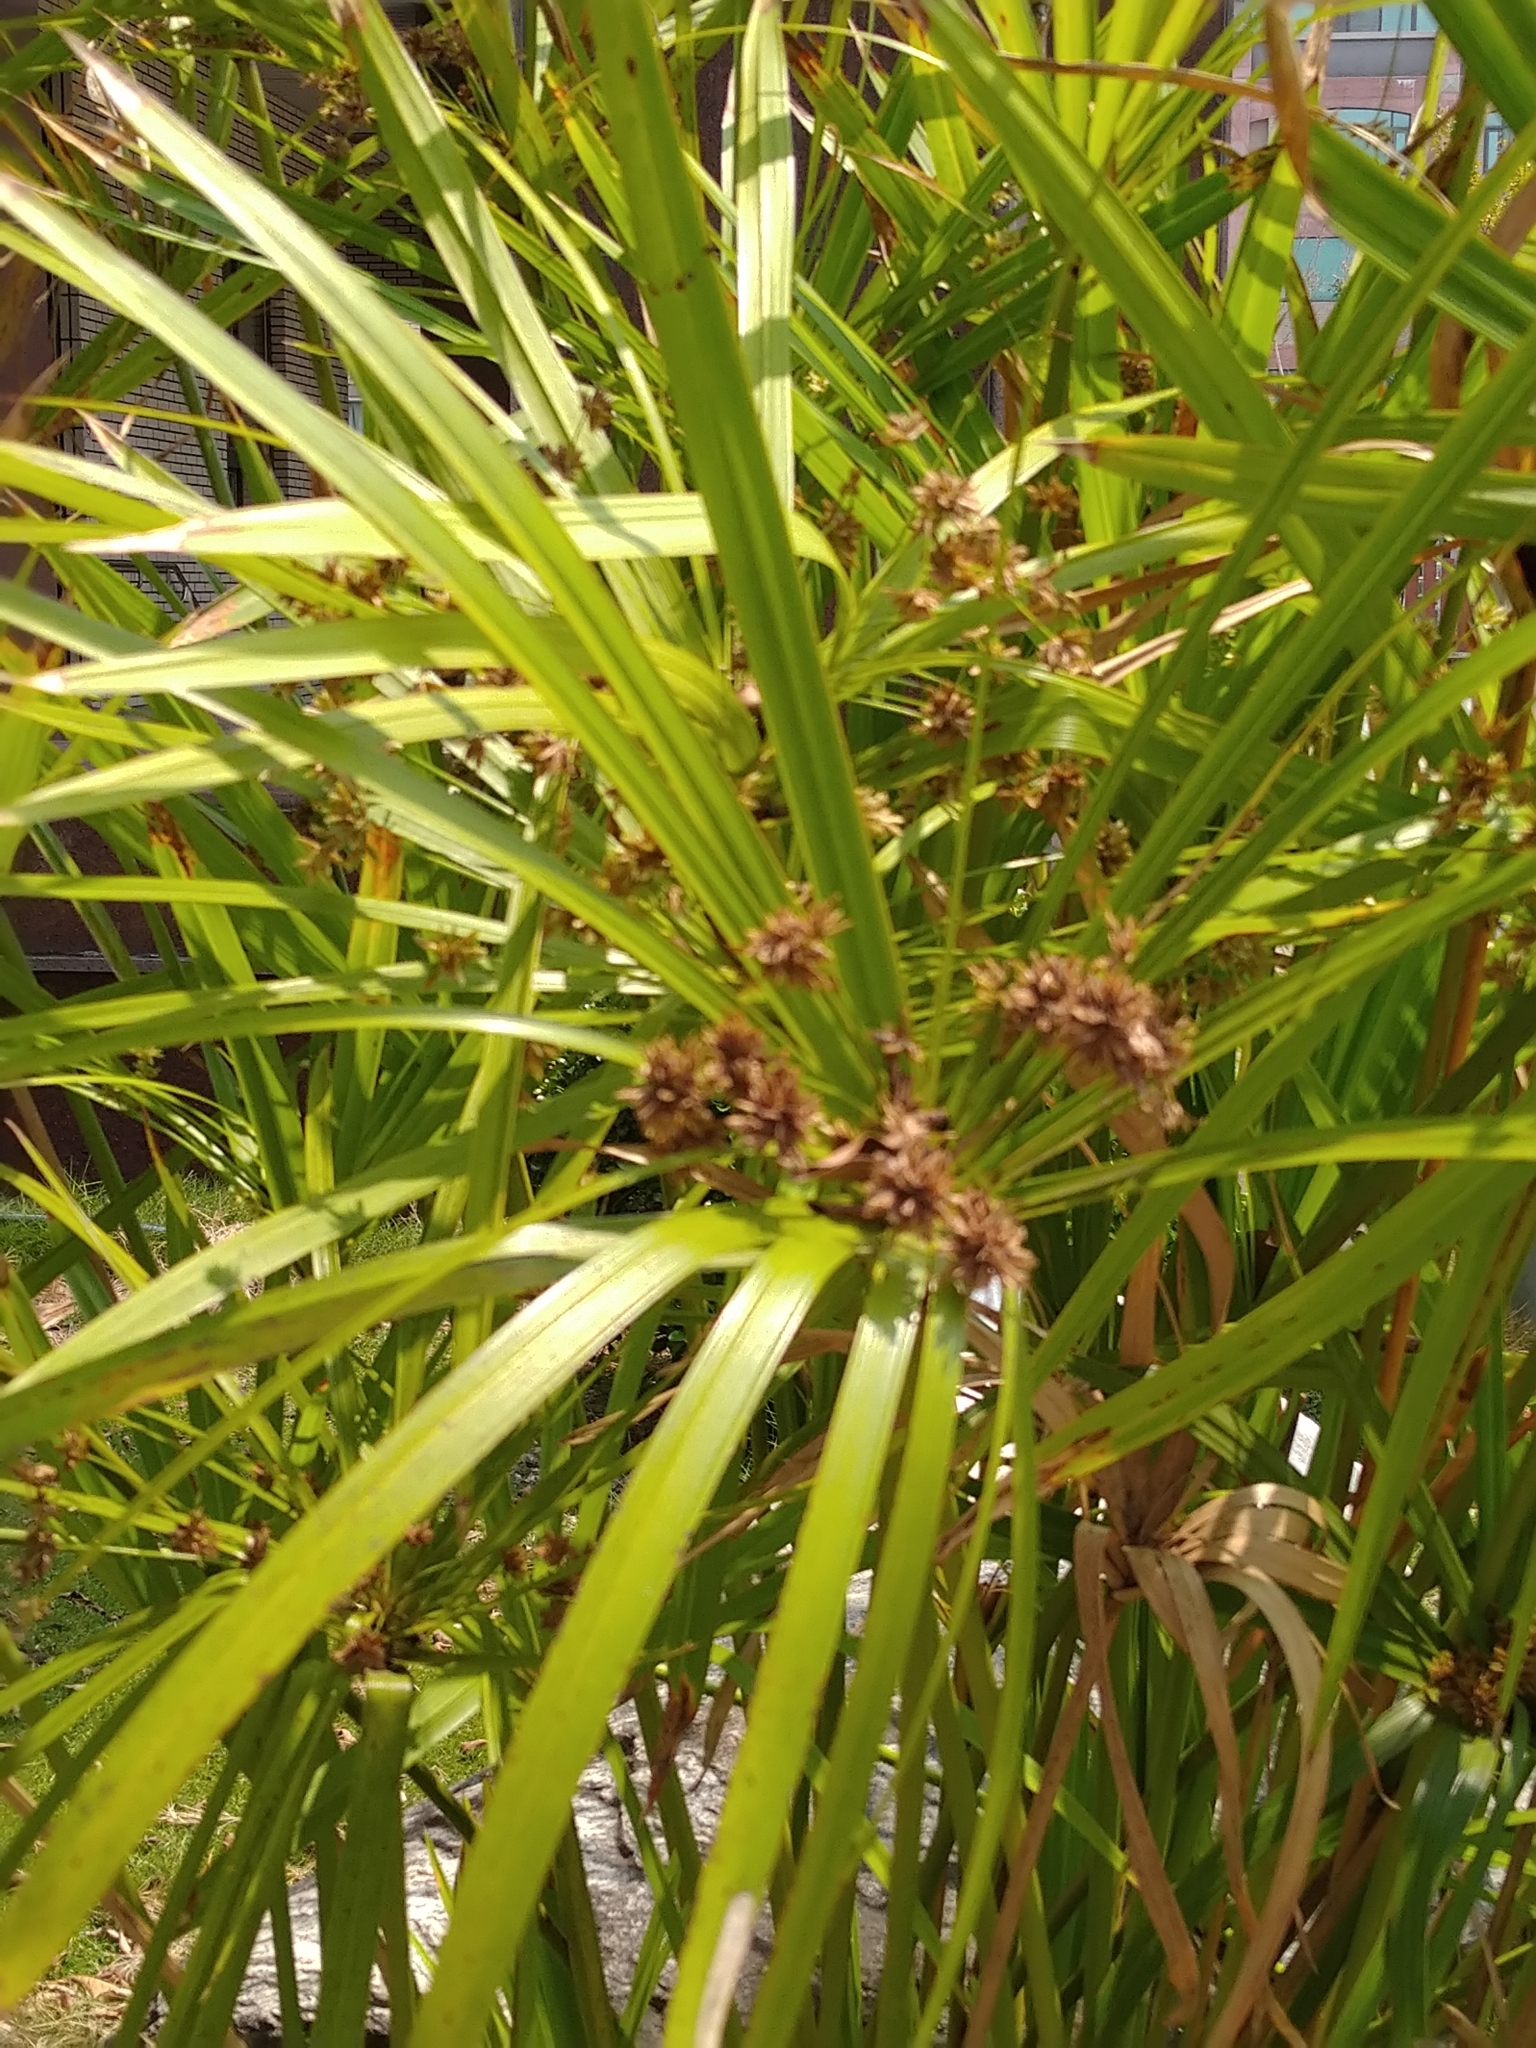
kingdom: Plantae
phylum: Tracheophyta
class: Liliopsida
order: Poales
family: Cyperaceae
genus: Cyperus
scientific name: Cyperus alternifolius
